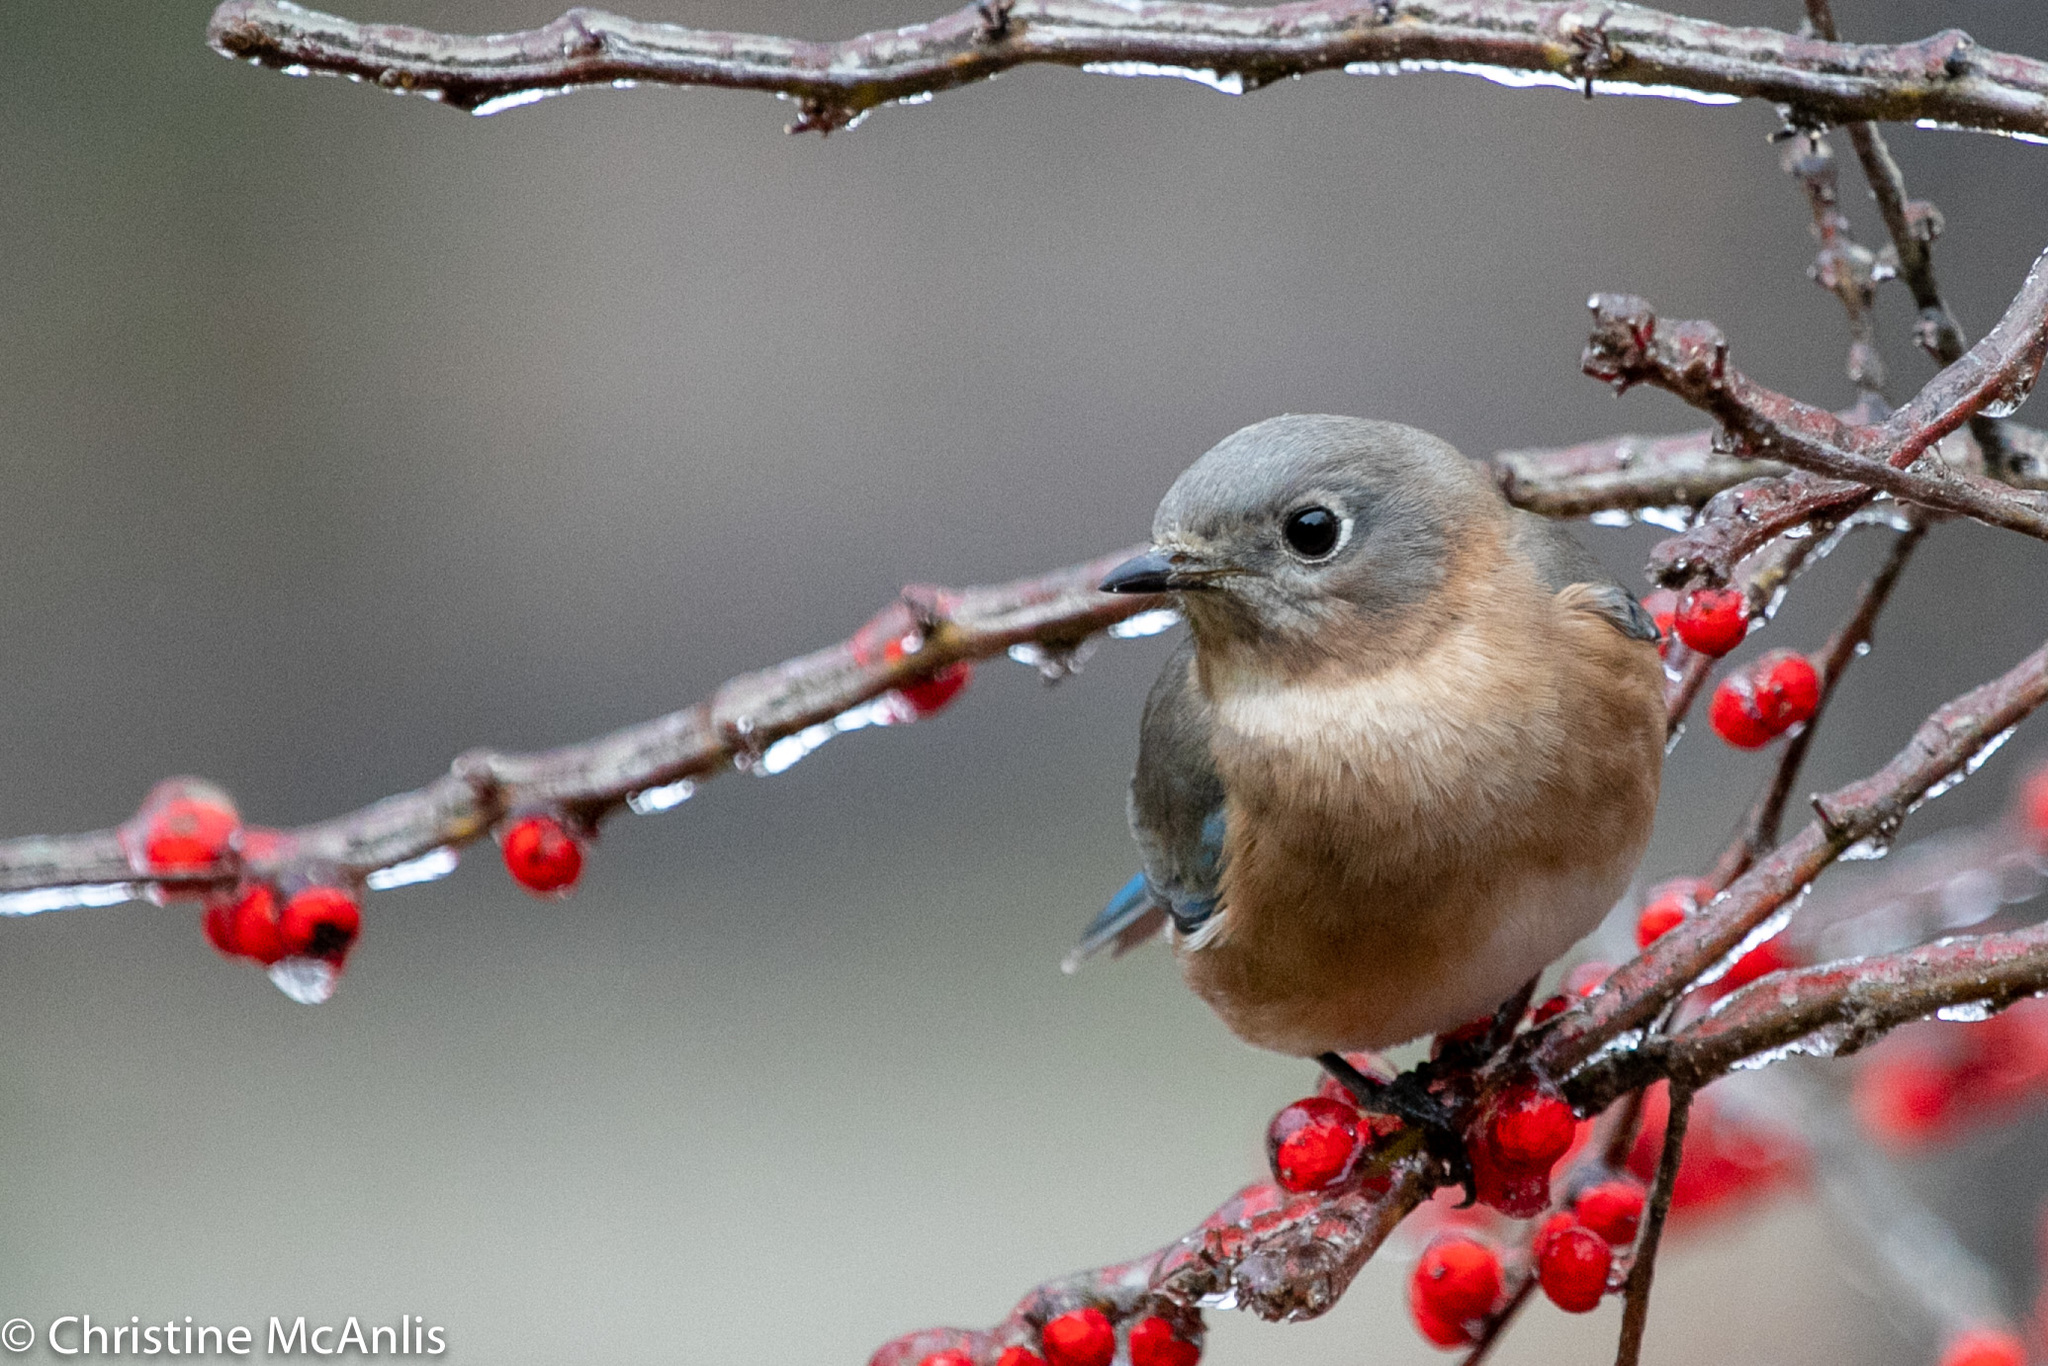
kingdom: Animalia
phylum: Chordata
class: Aves
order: Passeriformes
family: Turdidae
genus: Sialia
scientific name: Sialia sialis
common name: Eastern bluebird
